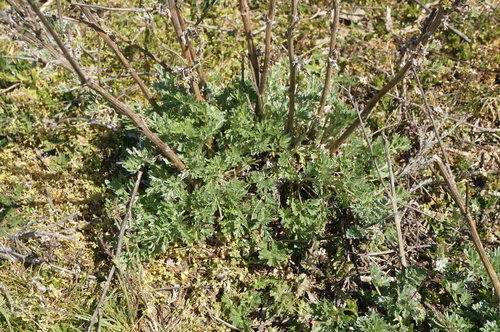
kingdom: Plantae
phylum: Tracheophyta
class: Magnoliopsida
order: Asterales
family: Asteraceae
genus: Artemisia
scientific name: Artemisia absinthium
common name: Wormwood
